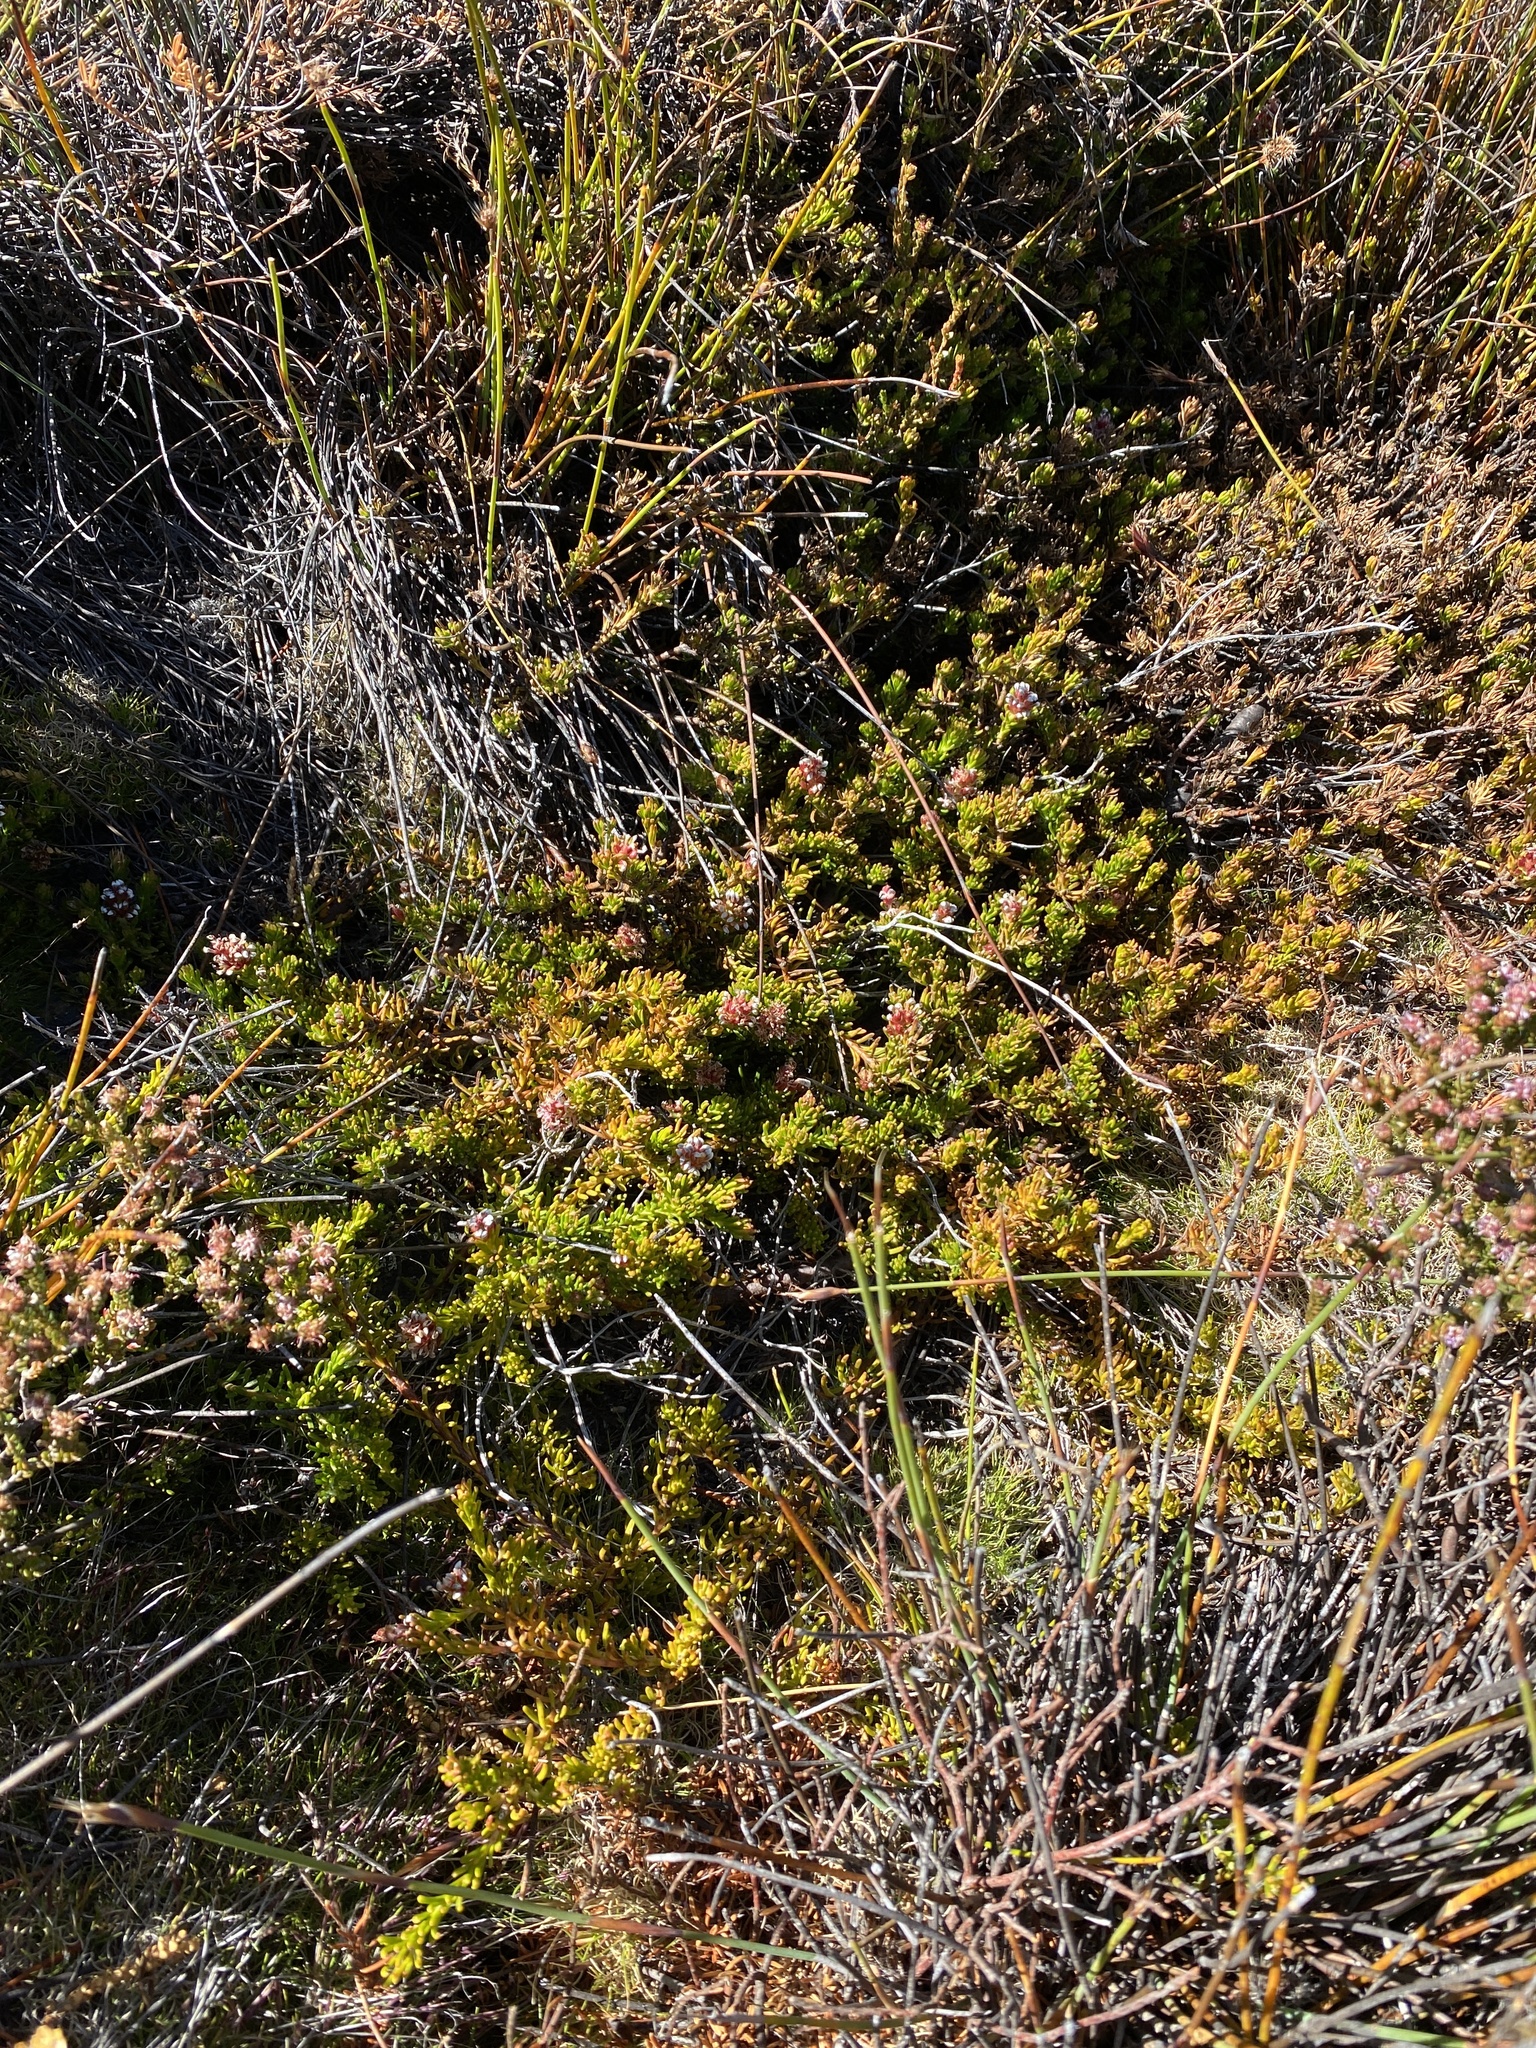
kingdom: Plantae
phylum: Tracheophyta
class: Magnoliopsida
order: Proteales
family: Proteaceae
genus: Spatalla
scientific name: Spatalla confusa
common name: Long-tube spoon
